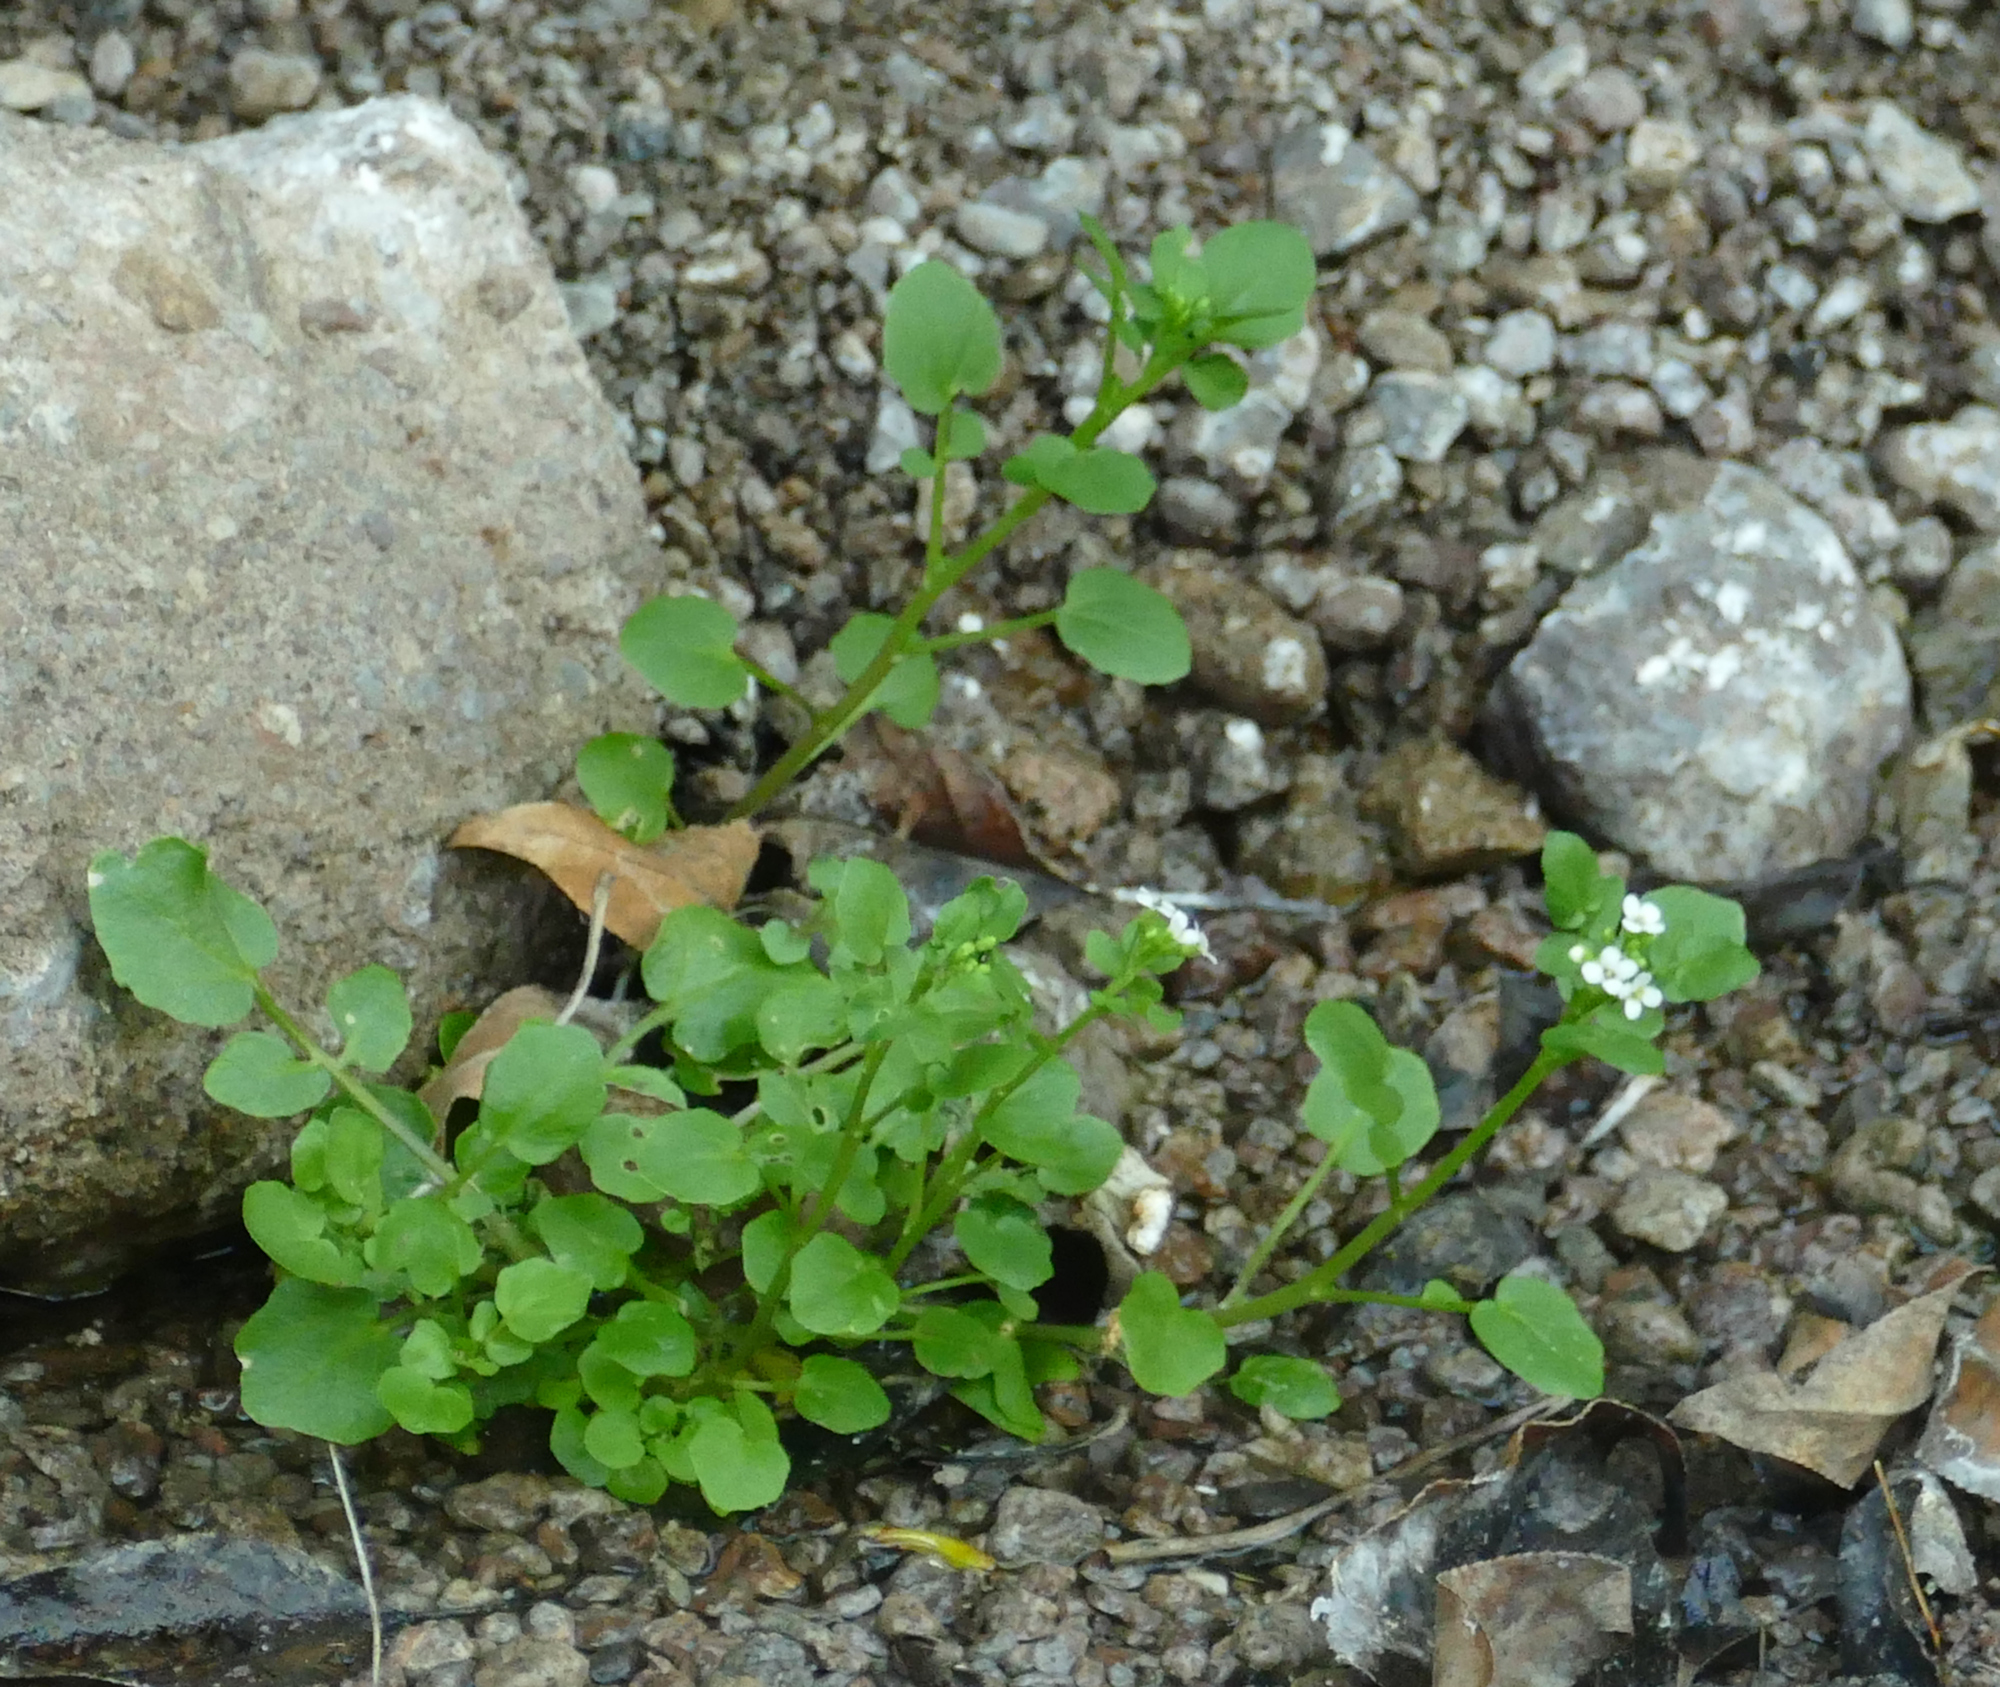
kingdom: Plantae
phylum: Tracheophyta
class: Magnoliopsida
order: Brassicales
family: Brassicaceae
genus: Nasturtium
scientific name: Nasturtium officinale
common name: Watercress
